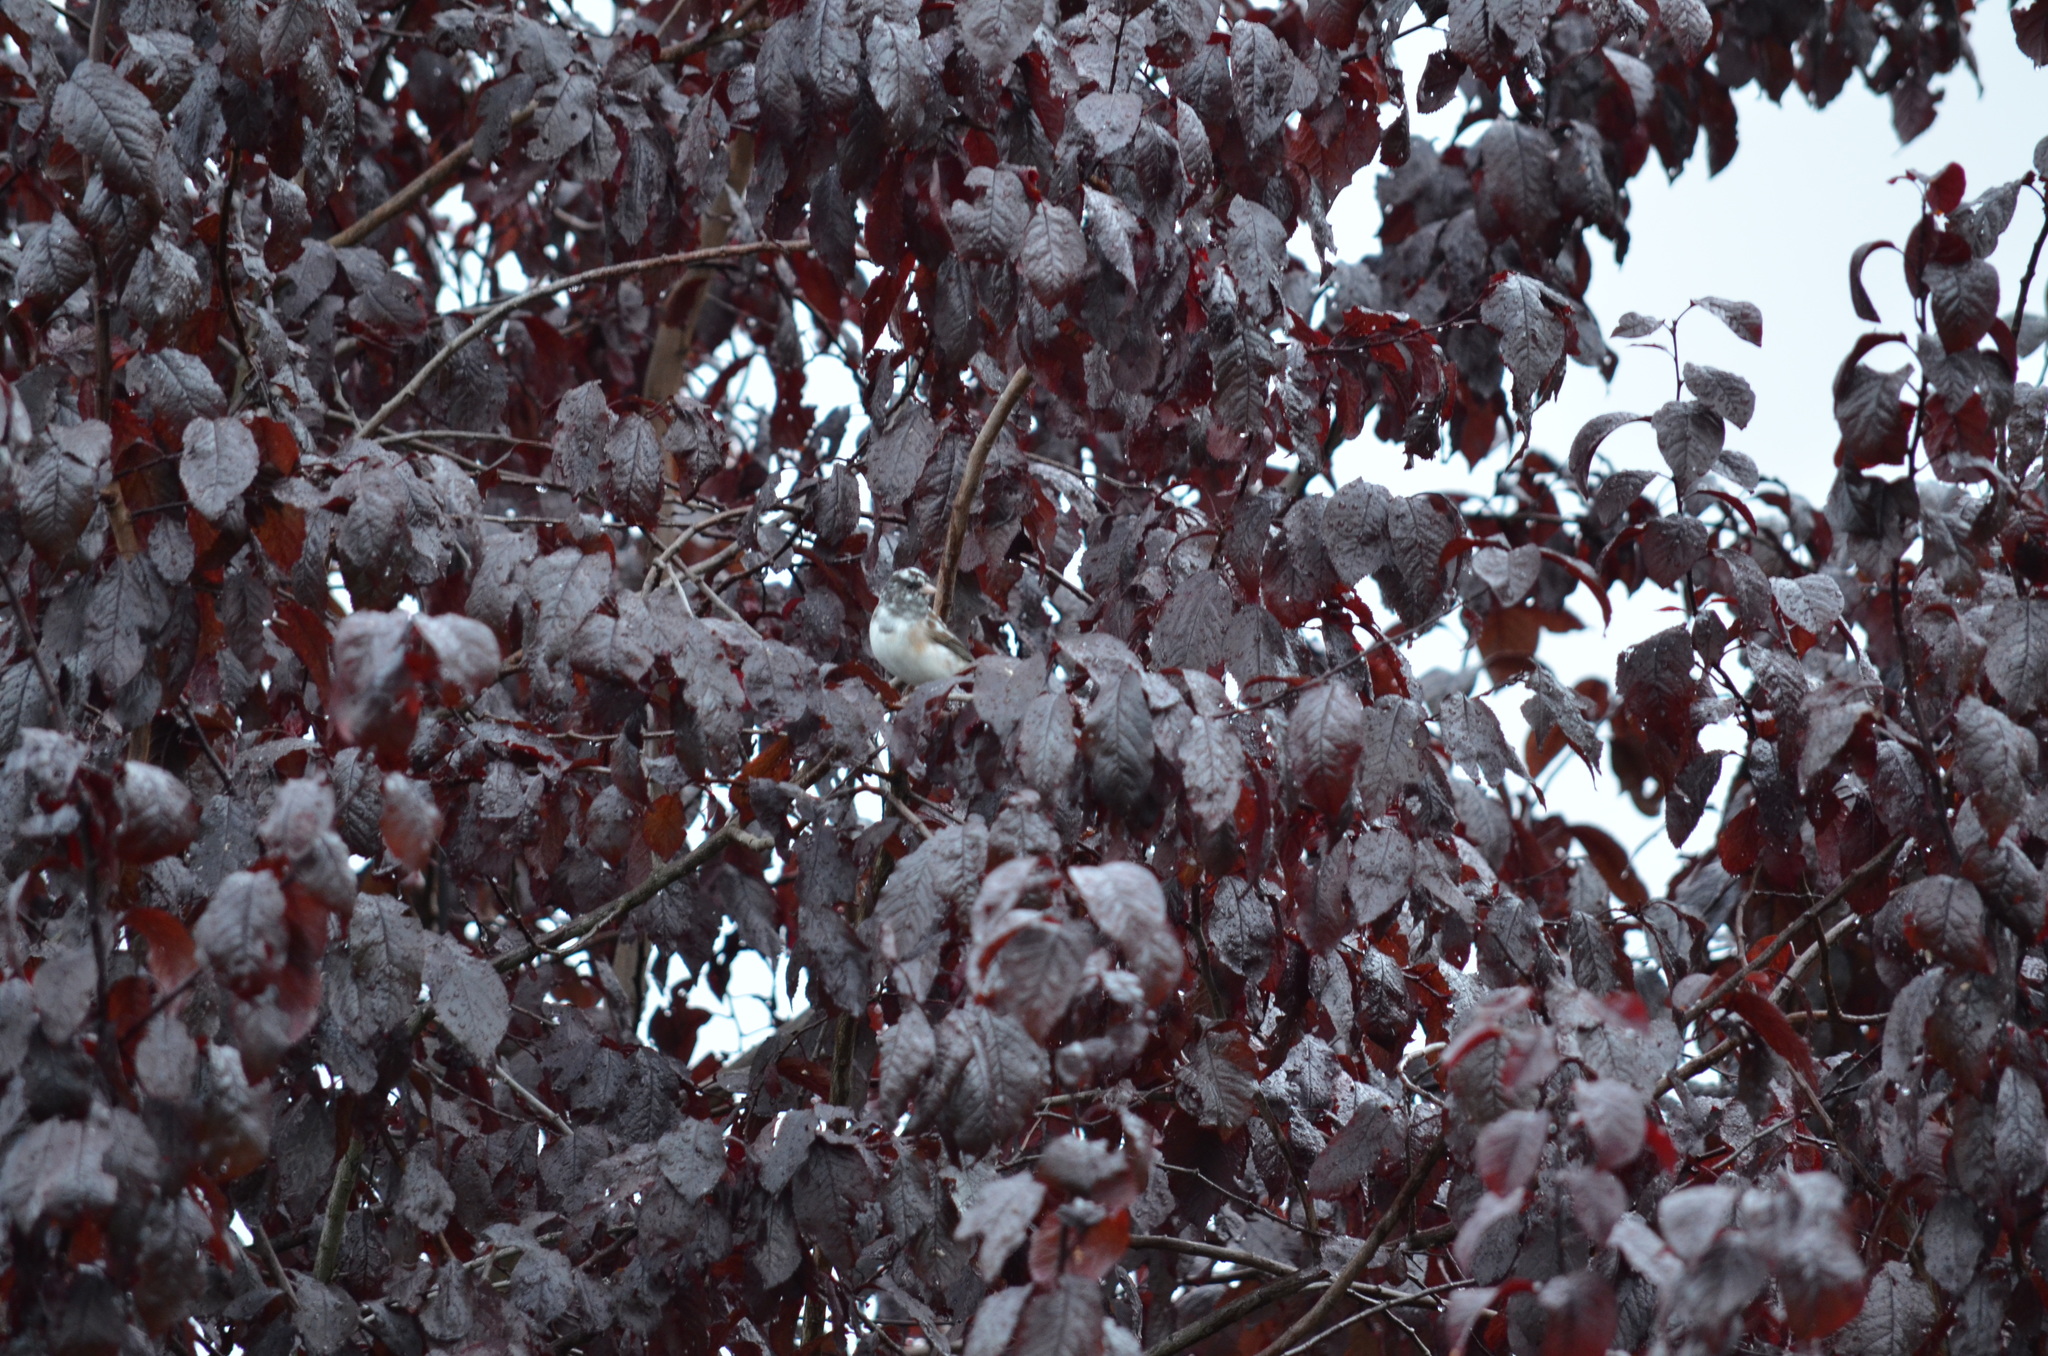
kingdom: Animalia
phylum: Chordata
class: Aves
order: Passeriformes
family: Passerellidae
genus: Junco
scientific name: Junco hyemalis
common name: Dark-eyed junco
